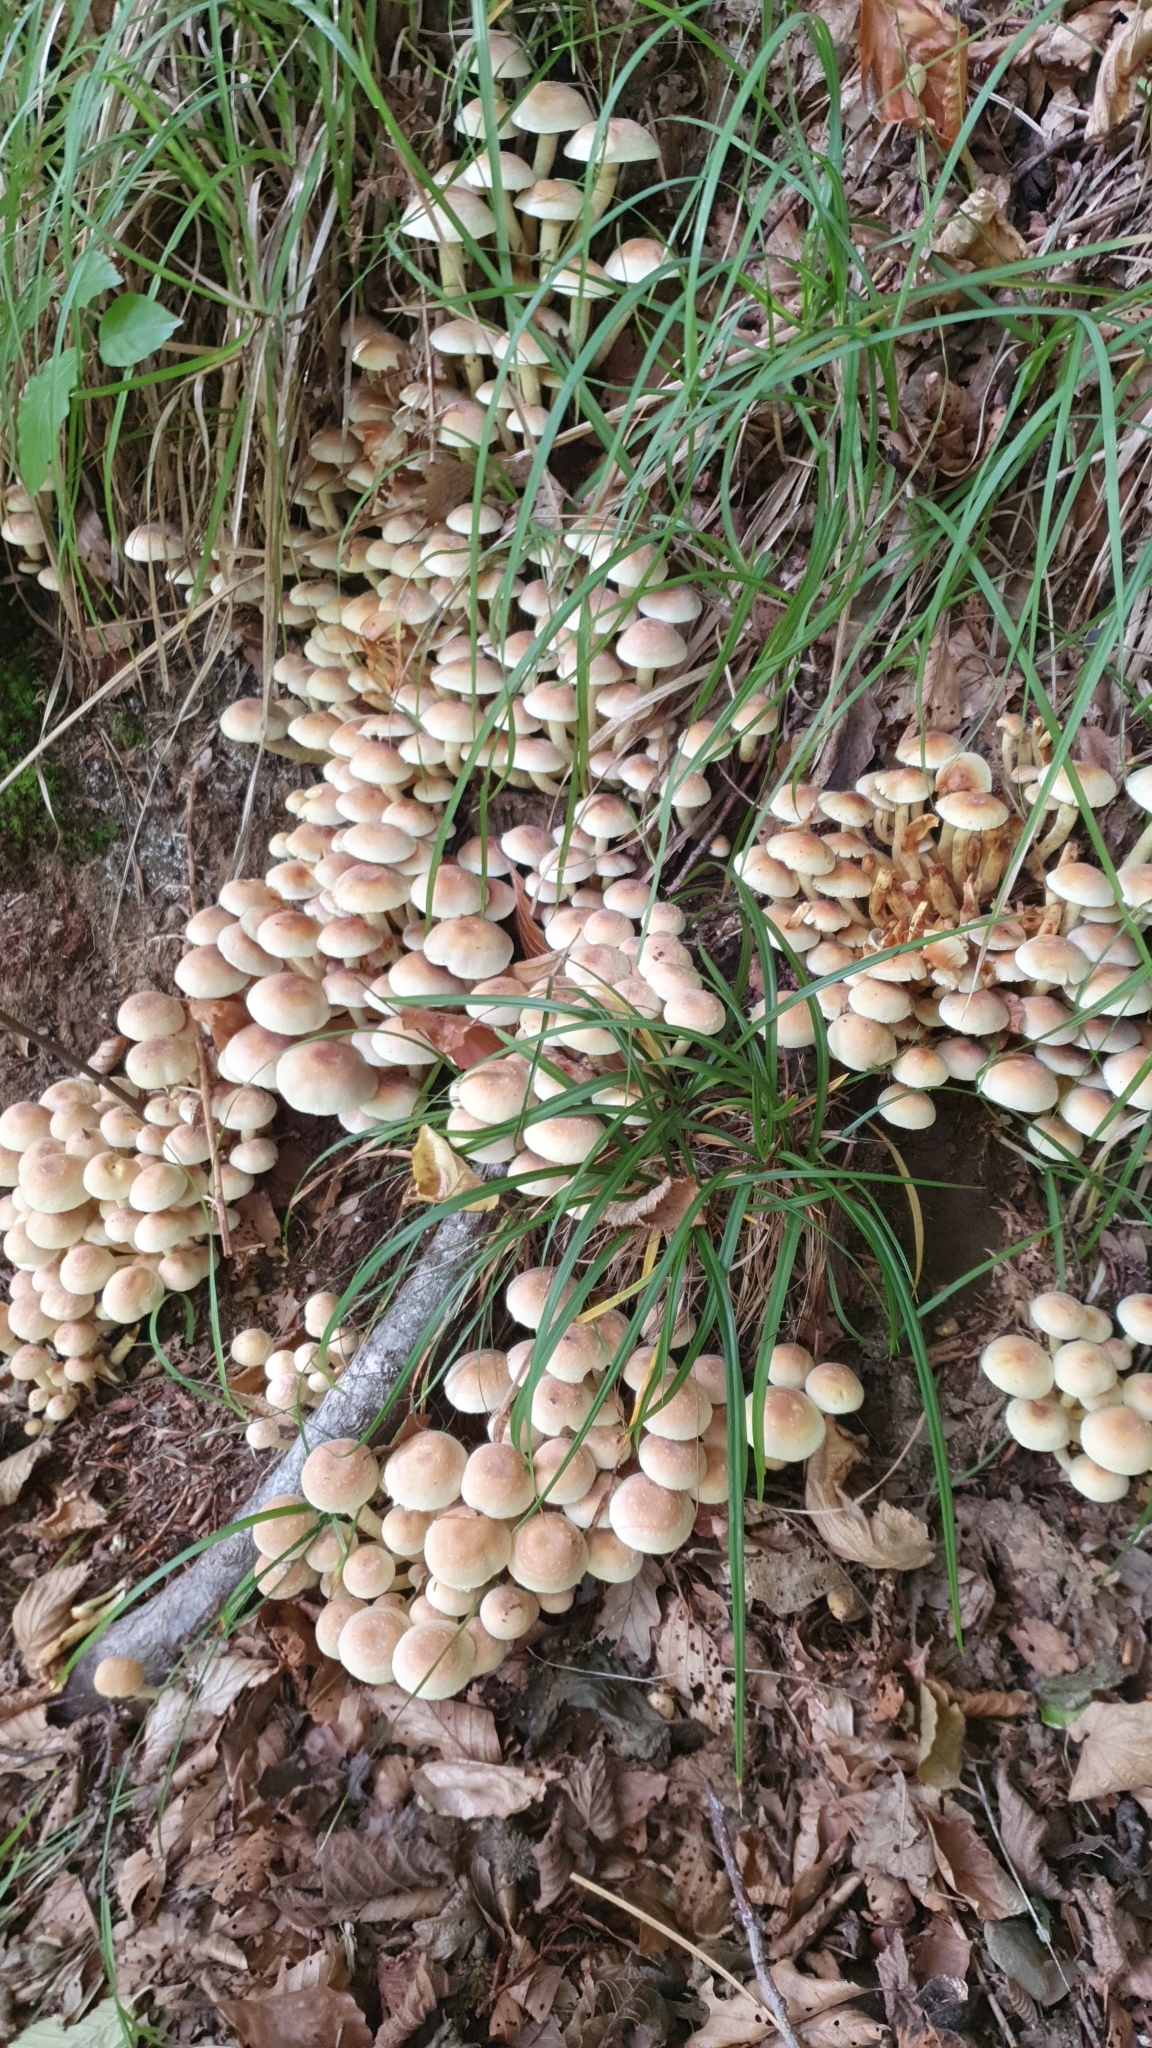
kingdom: Fungi
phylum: Basidiomycota
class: Agaricomycetes
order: Agaricales
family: Strophariaceae
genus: Hypholoma
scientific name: Hypholoma fasciculare
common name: Sulphur tuft
